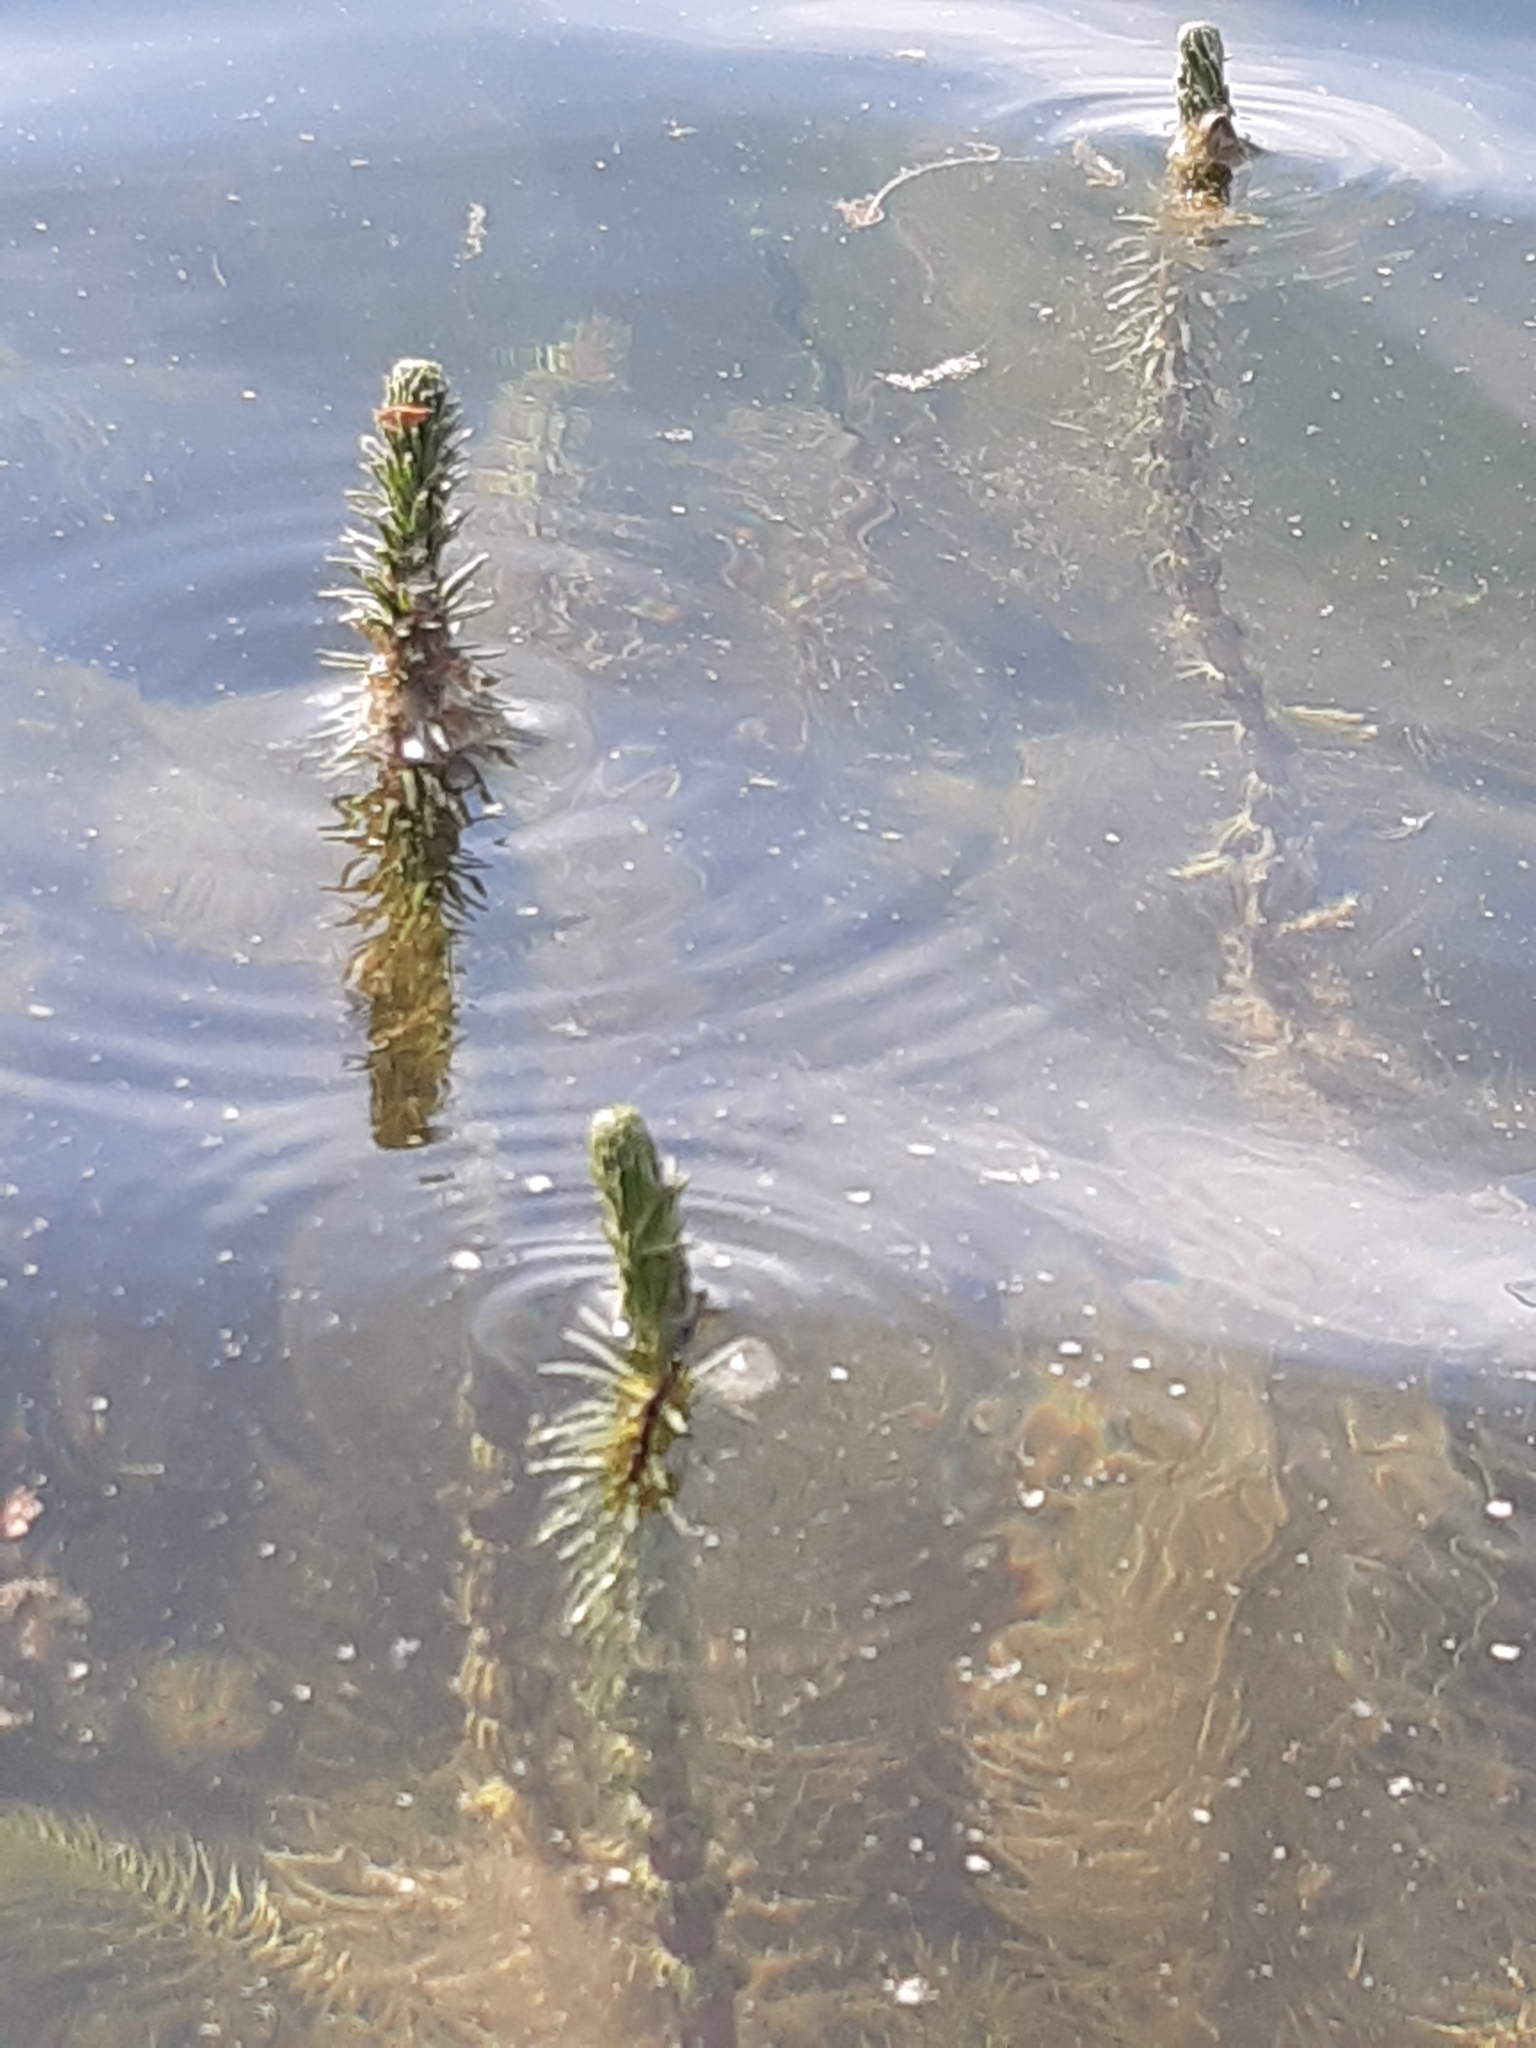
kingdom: Plantae
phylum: Tracheophyta
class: Magnoliopsida
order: Lamiales
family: Plantaginaceae
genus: Hippuris
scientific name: Hippuris vulgaris
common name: Mare's-tail
